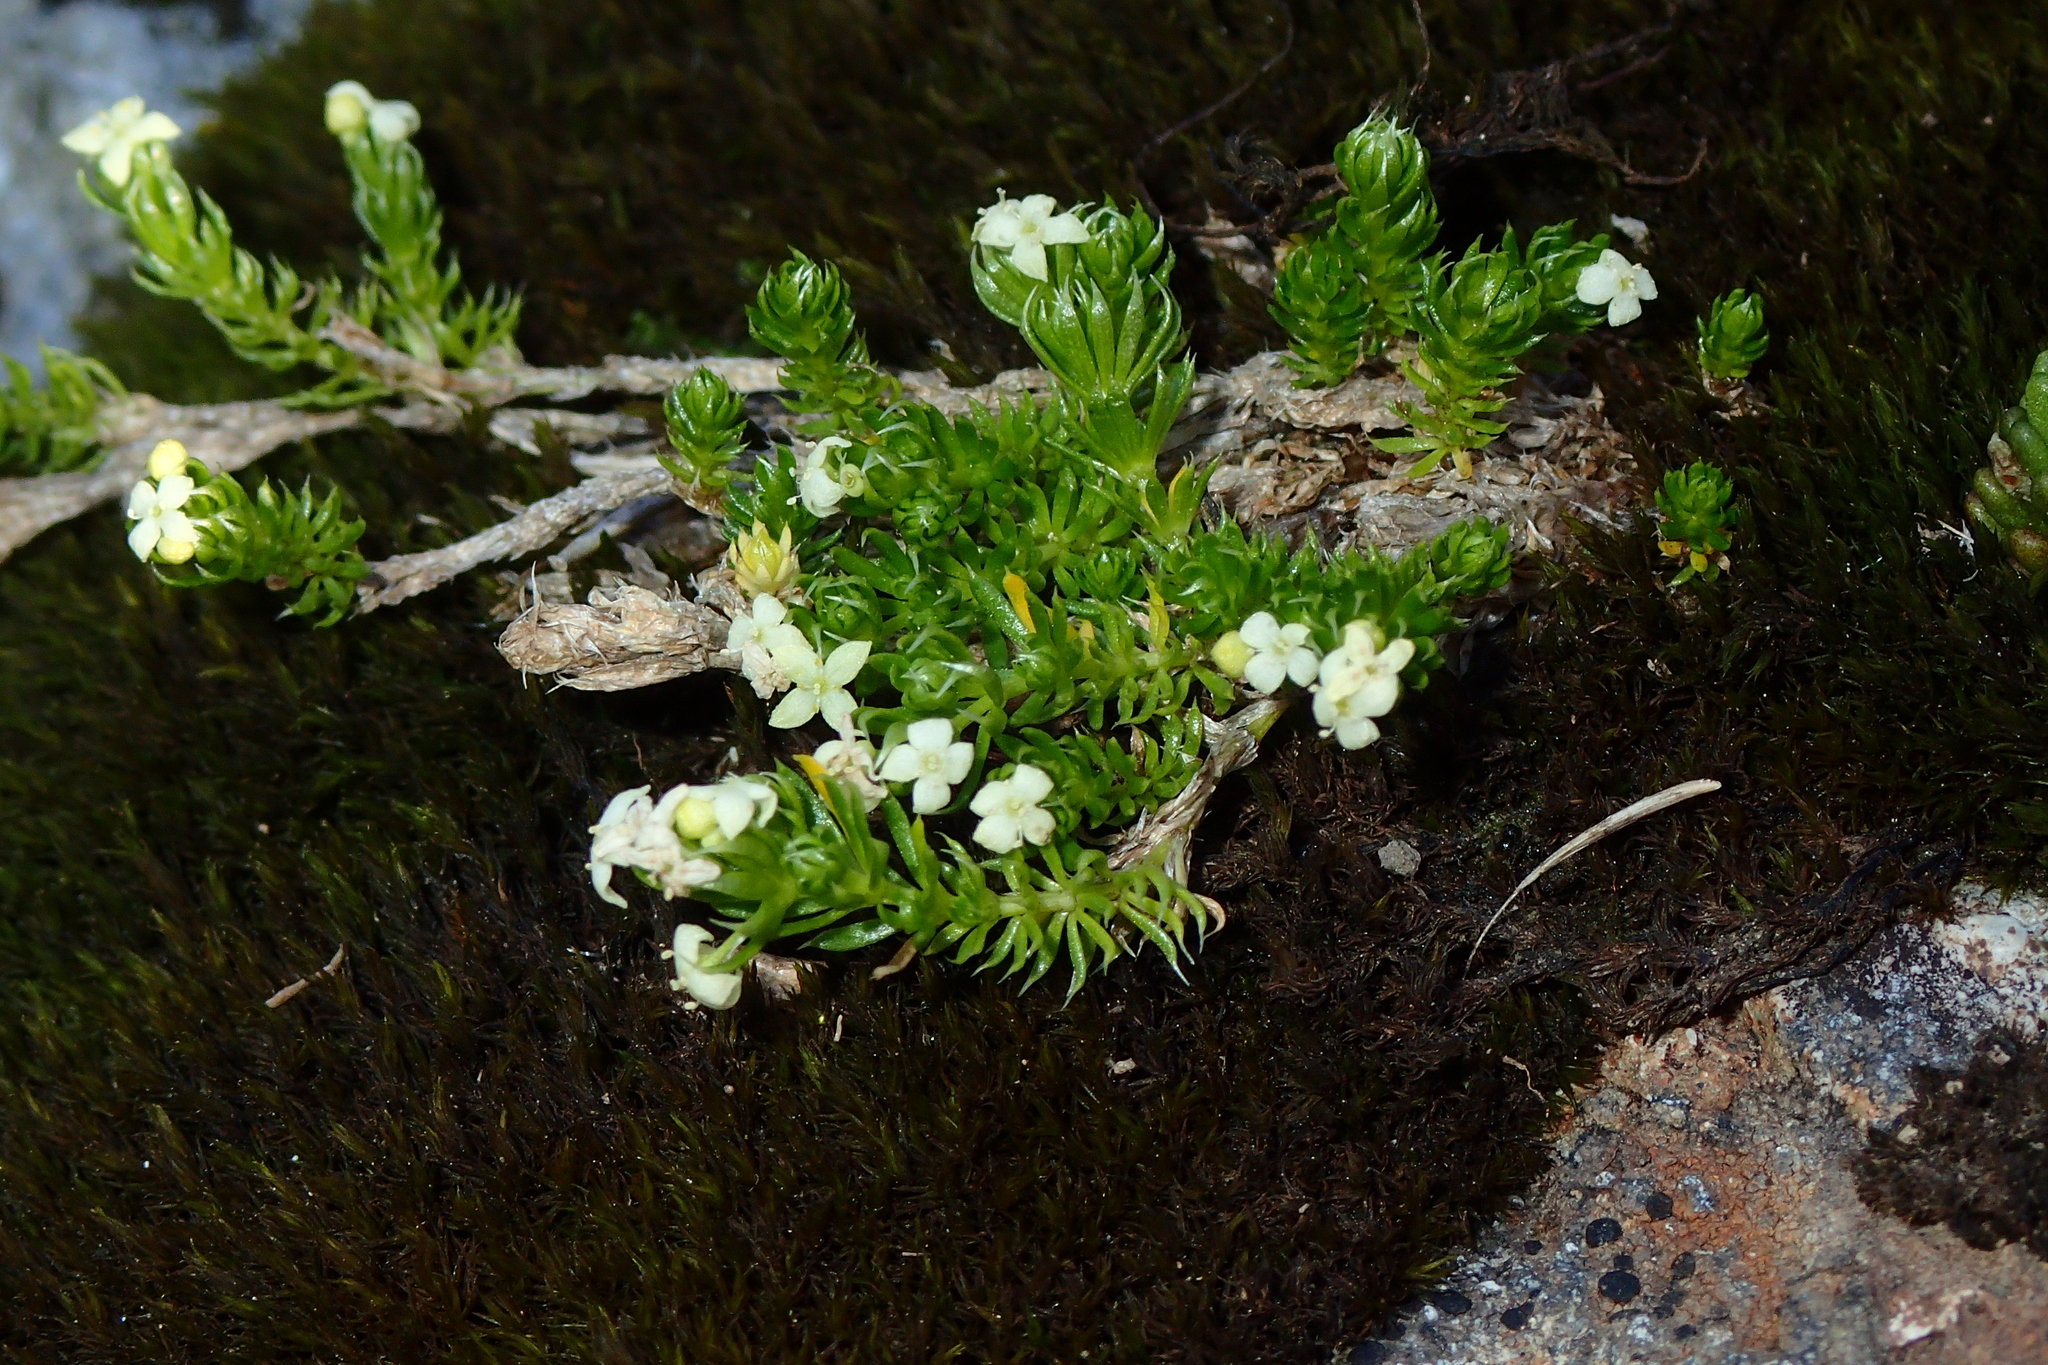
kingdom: Plantae
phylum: Tracheophyta
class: Magnoliopsida
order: Gentianales
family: Rubiaceae
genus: Galium
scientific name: Galium pyrenaicum
